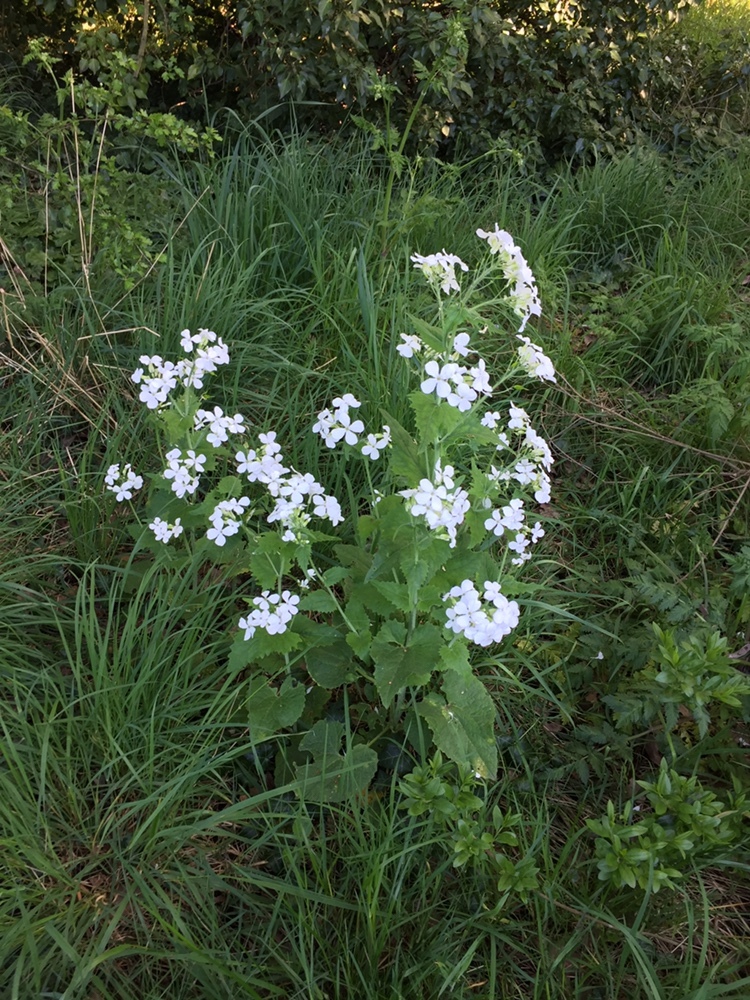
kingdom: Plantae
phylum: Tracheophyta
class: Magnoliopsida
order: Brassicales
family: Brassicaceae
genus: Lunaria
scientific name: Lunaria annua
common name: Honesty
